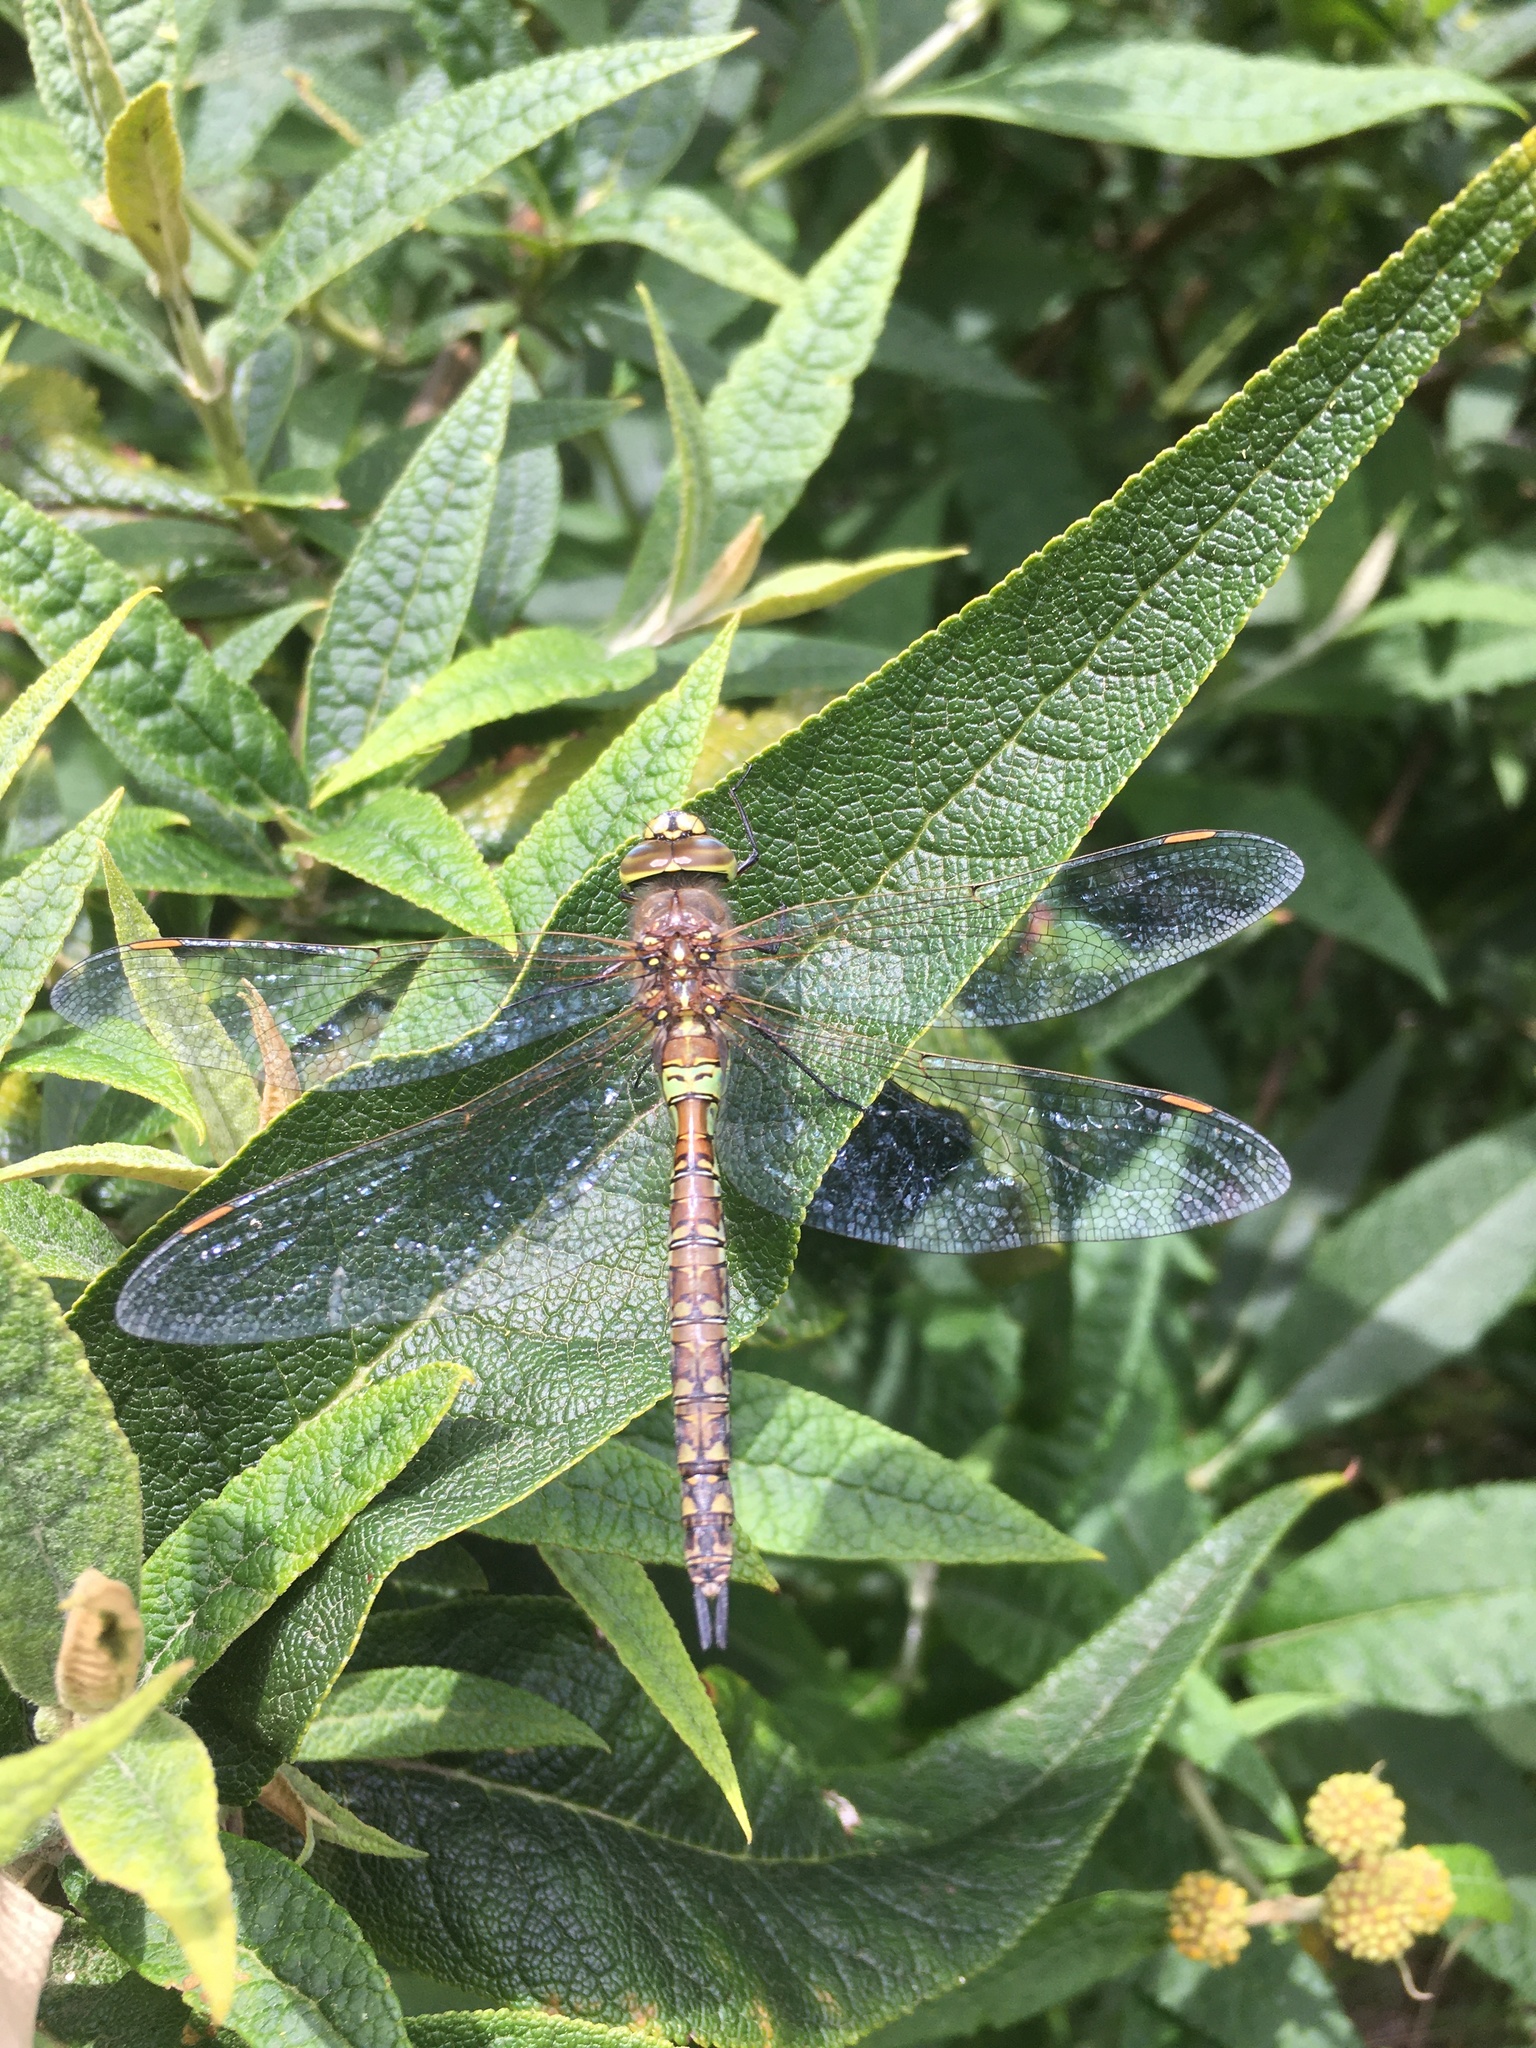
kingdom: Animalia
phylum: Arthropoda
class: Insecta
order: Odonata
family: Aeshnidae
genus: Rhionaeschna
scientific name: Rhionaeschna diffinis
